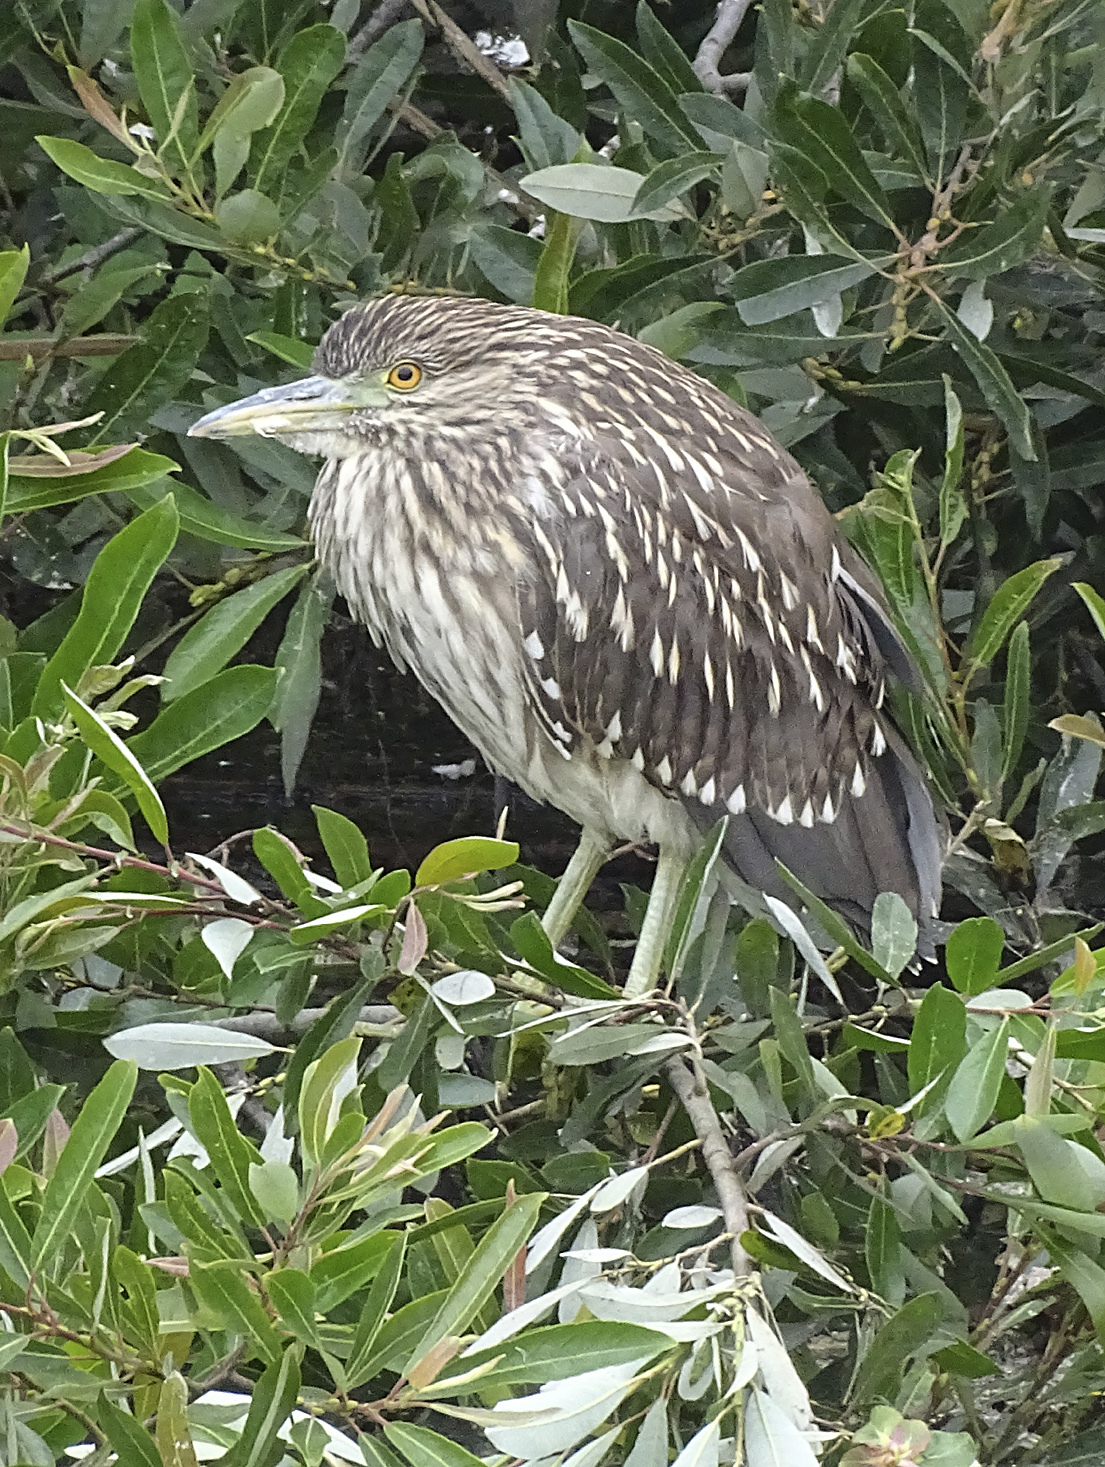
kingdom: Animalia
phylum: Chordata
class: Aves
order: Pelecaniformes
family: Ardeidae
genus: Nycticorax
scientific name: Nycticorax nycticorax
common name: Black-crowned night heron
